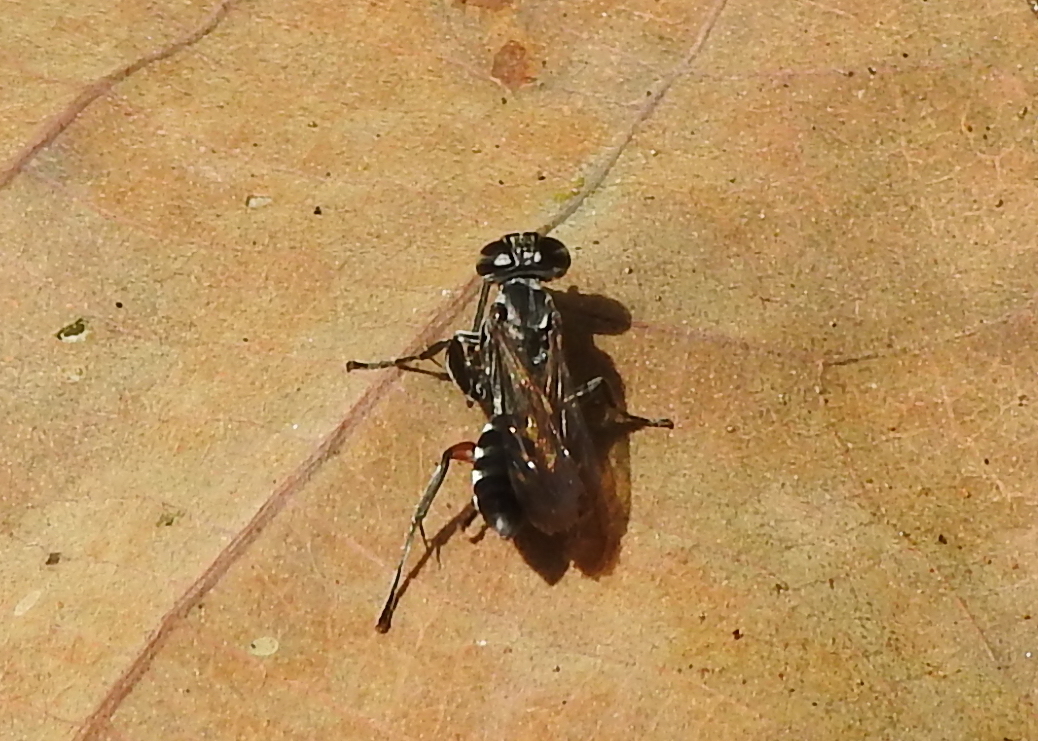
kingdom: Animalia
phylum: Arthropoda
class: Insecta
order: Hymenoptera
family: Crabronidae
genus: Liris
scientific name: Liris subtessellatus
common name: Crabronid wasp
